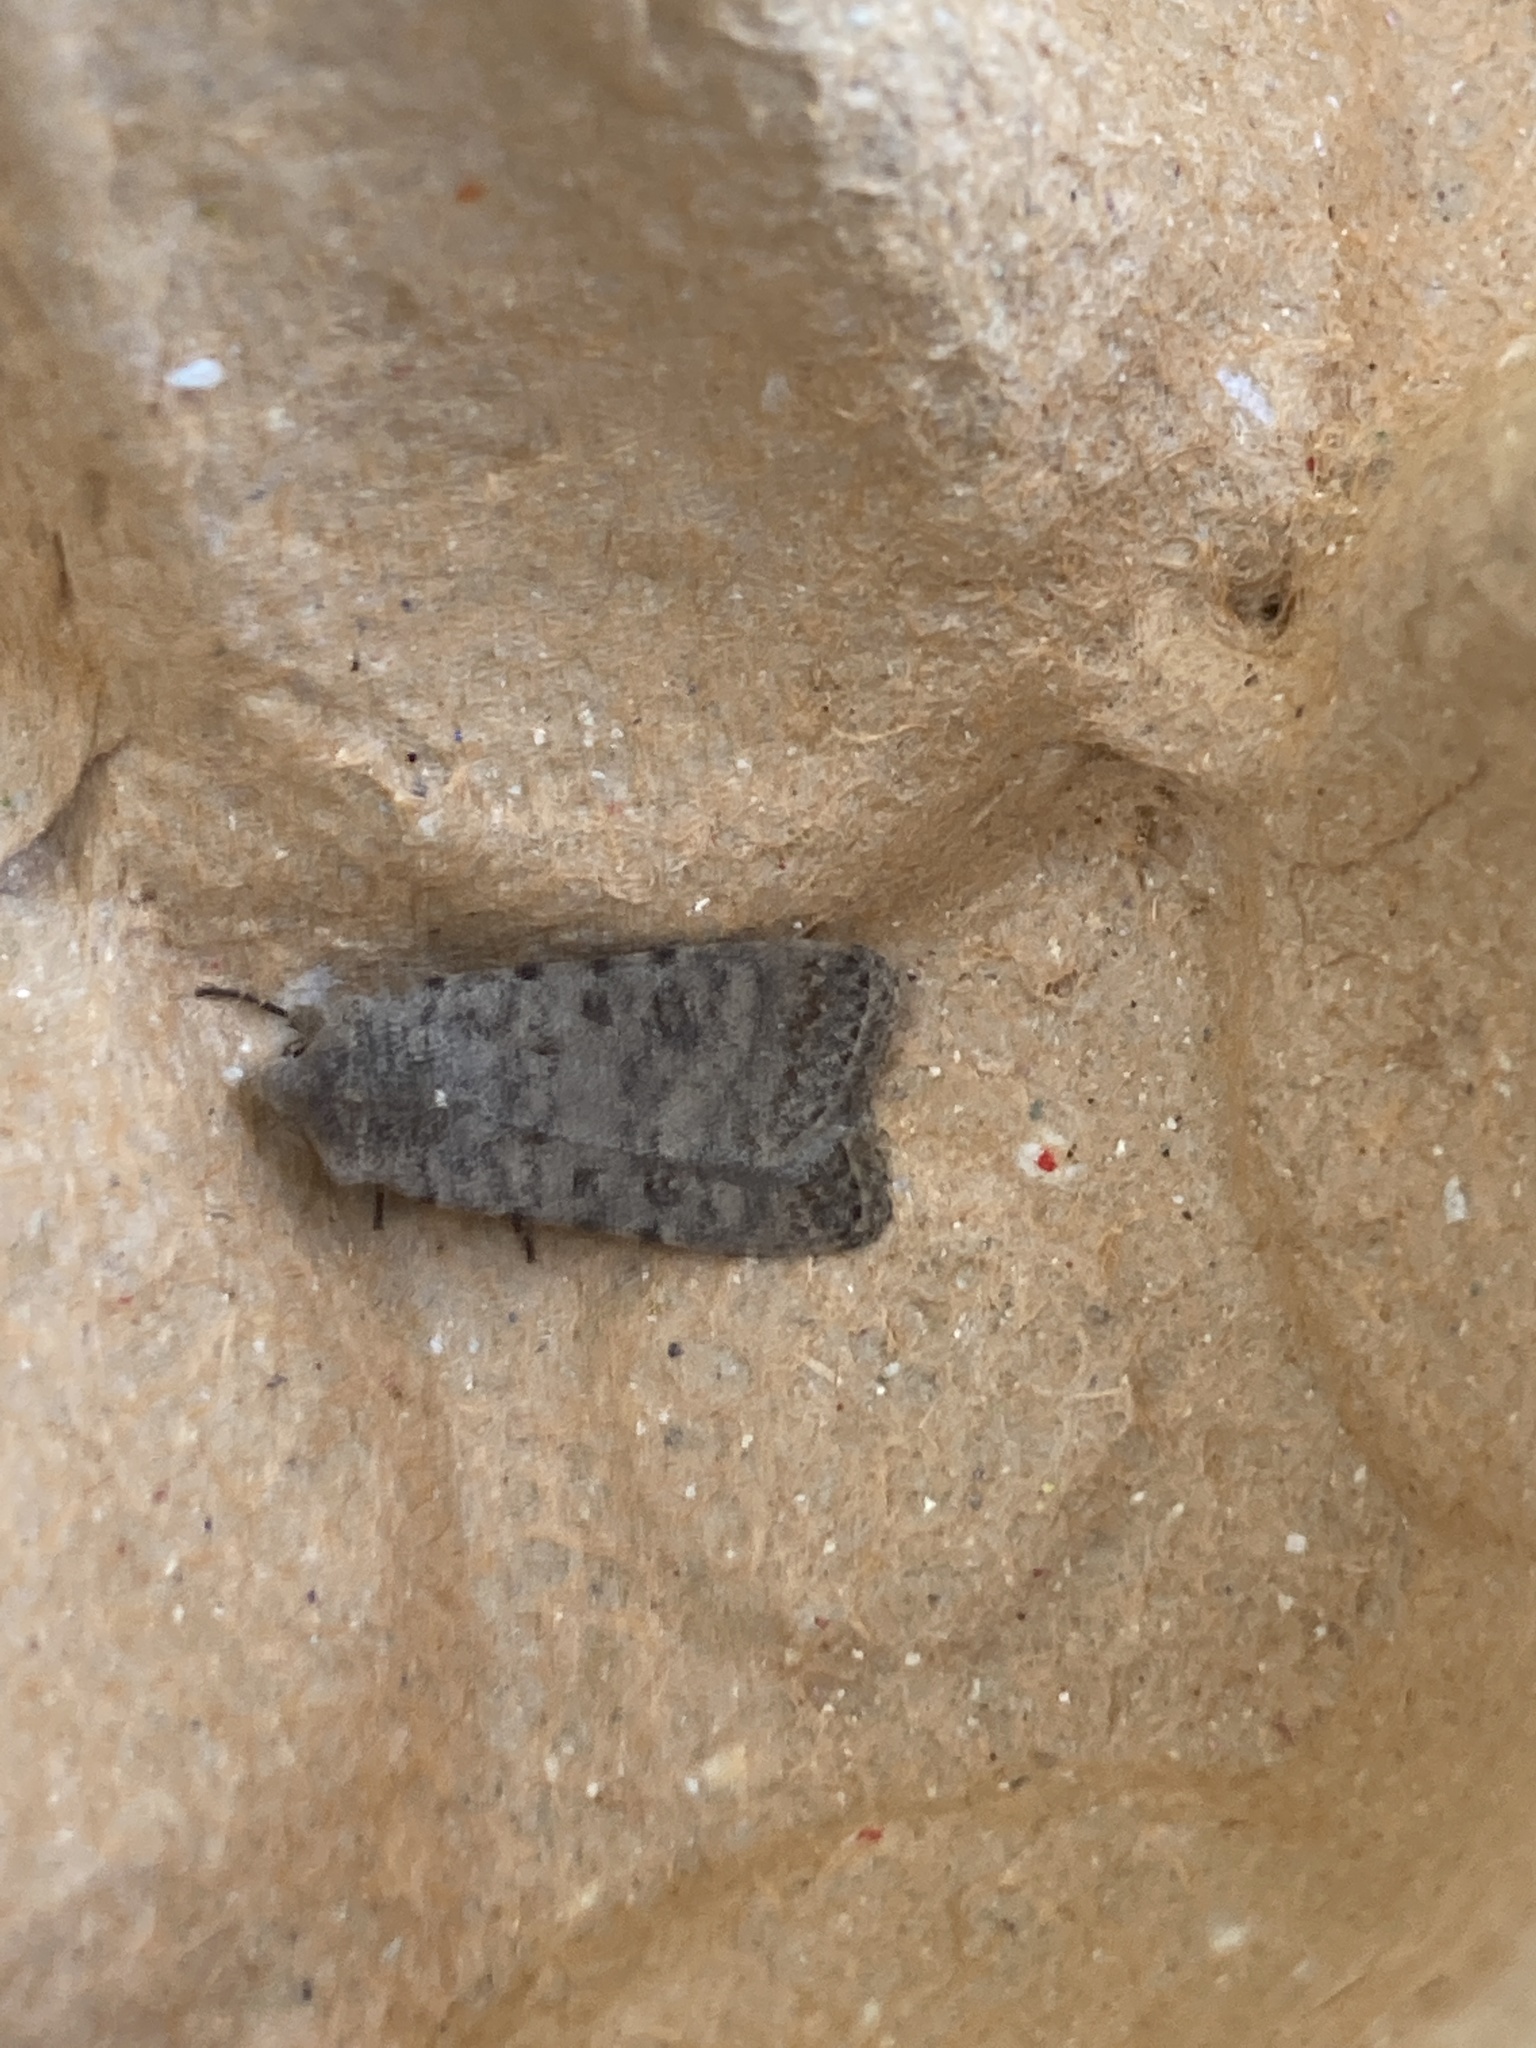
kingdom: Animalia
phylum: Arthropoda
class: Insecta
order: Lepidoptera
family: Noctuidae
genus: Caradrina
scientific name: Caradrina clavipalpis
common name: Pale mottled willow
